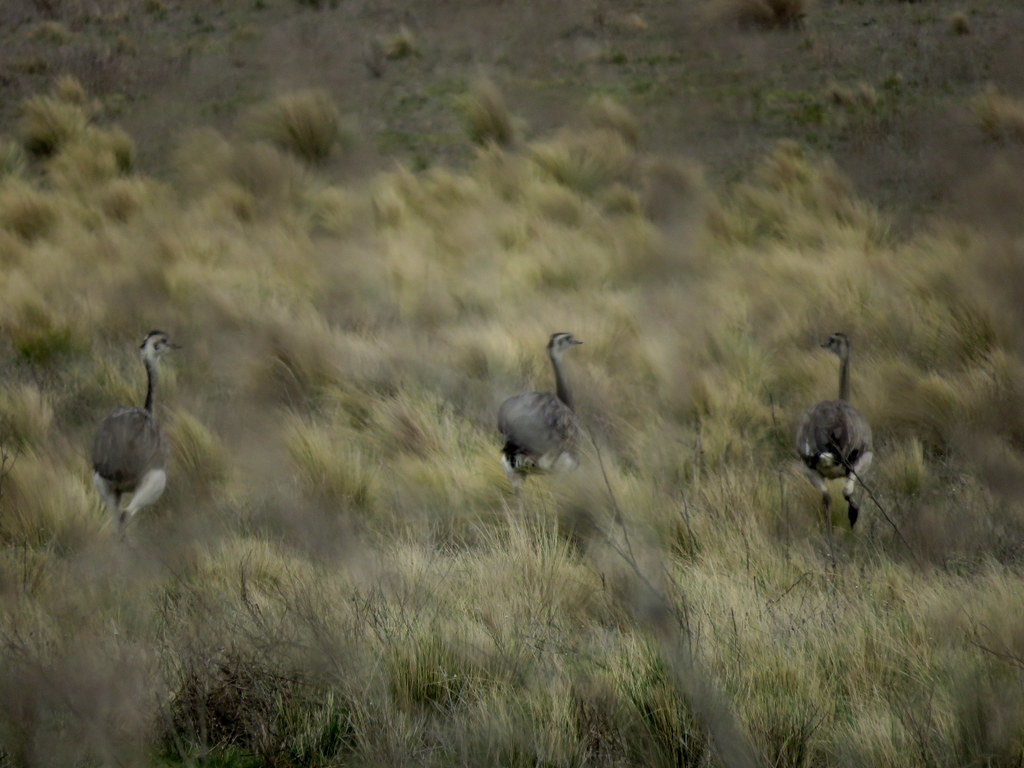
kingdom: Animalia
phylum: Chordata
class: Aves
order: Rheiformes
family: Rheidae
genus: Rhea
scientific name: Rhea americana
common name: Greater rhea
